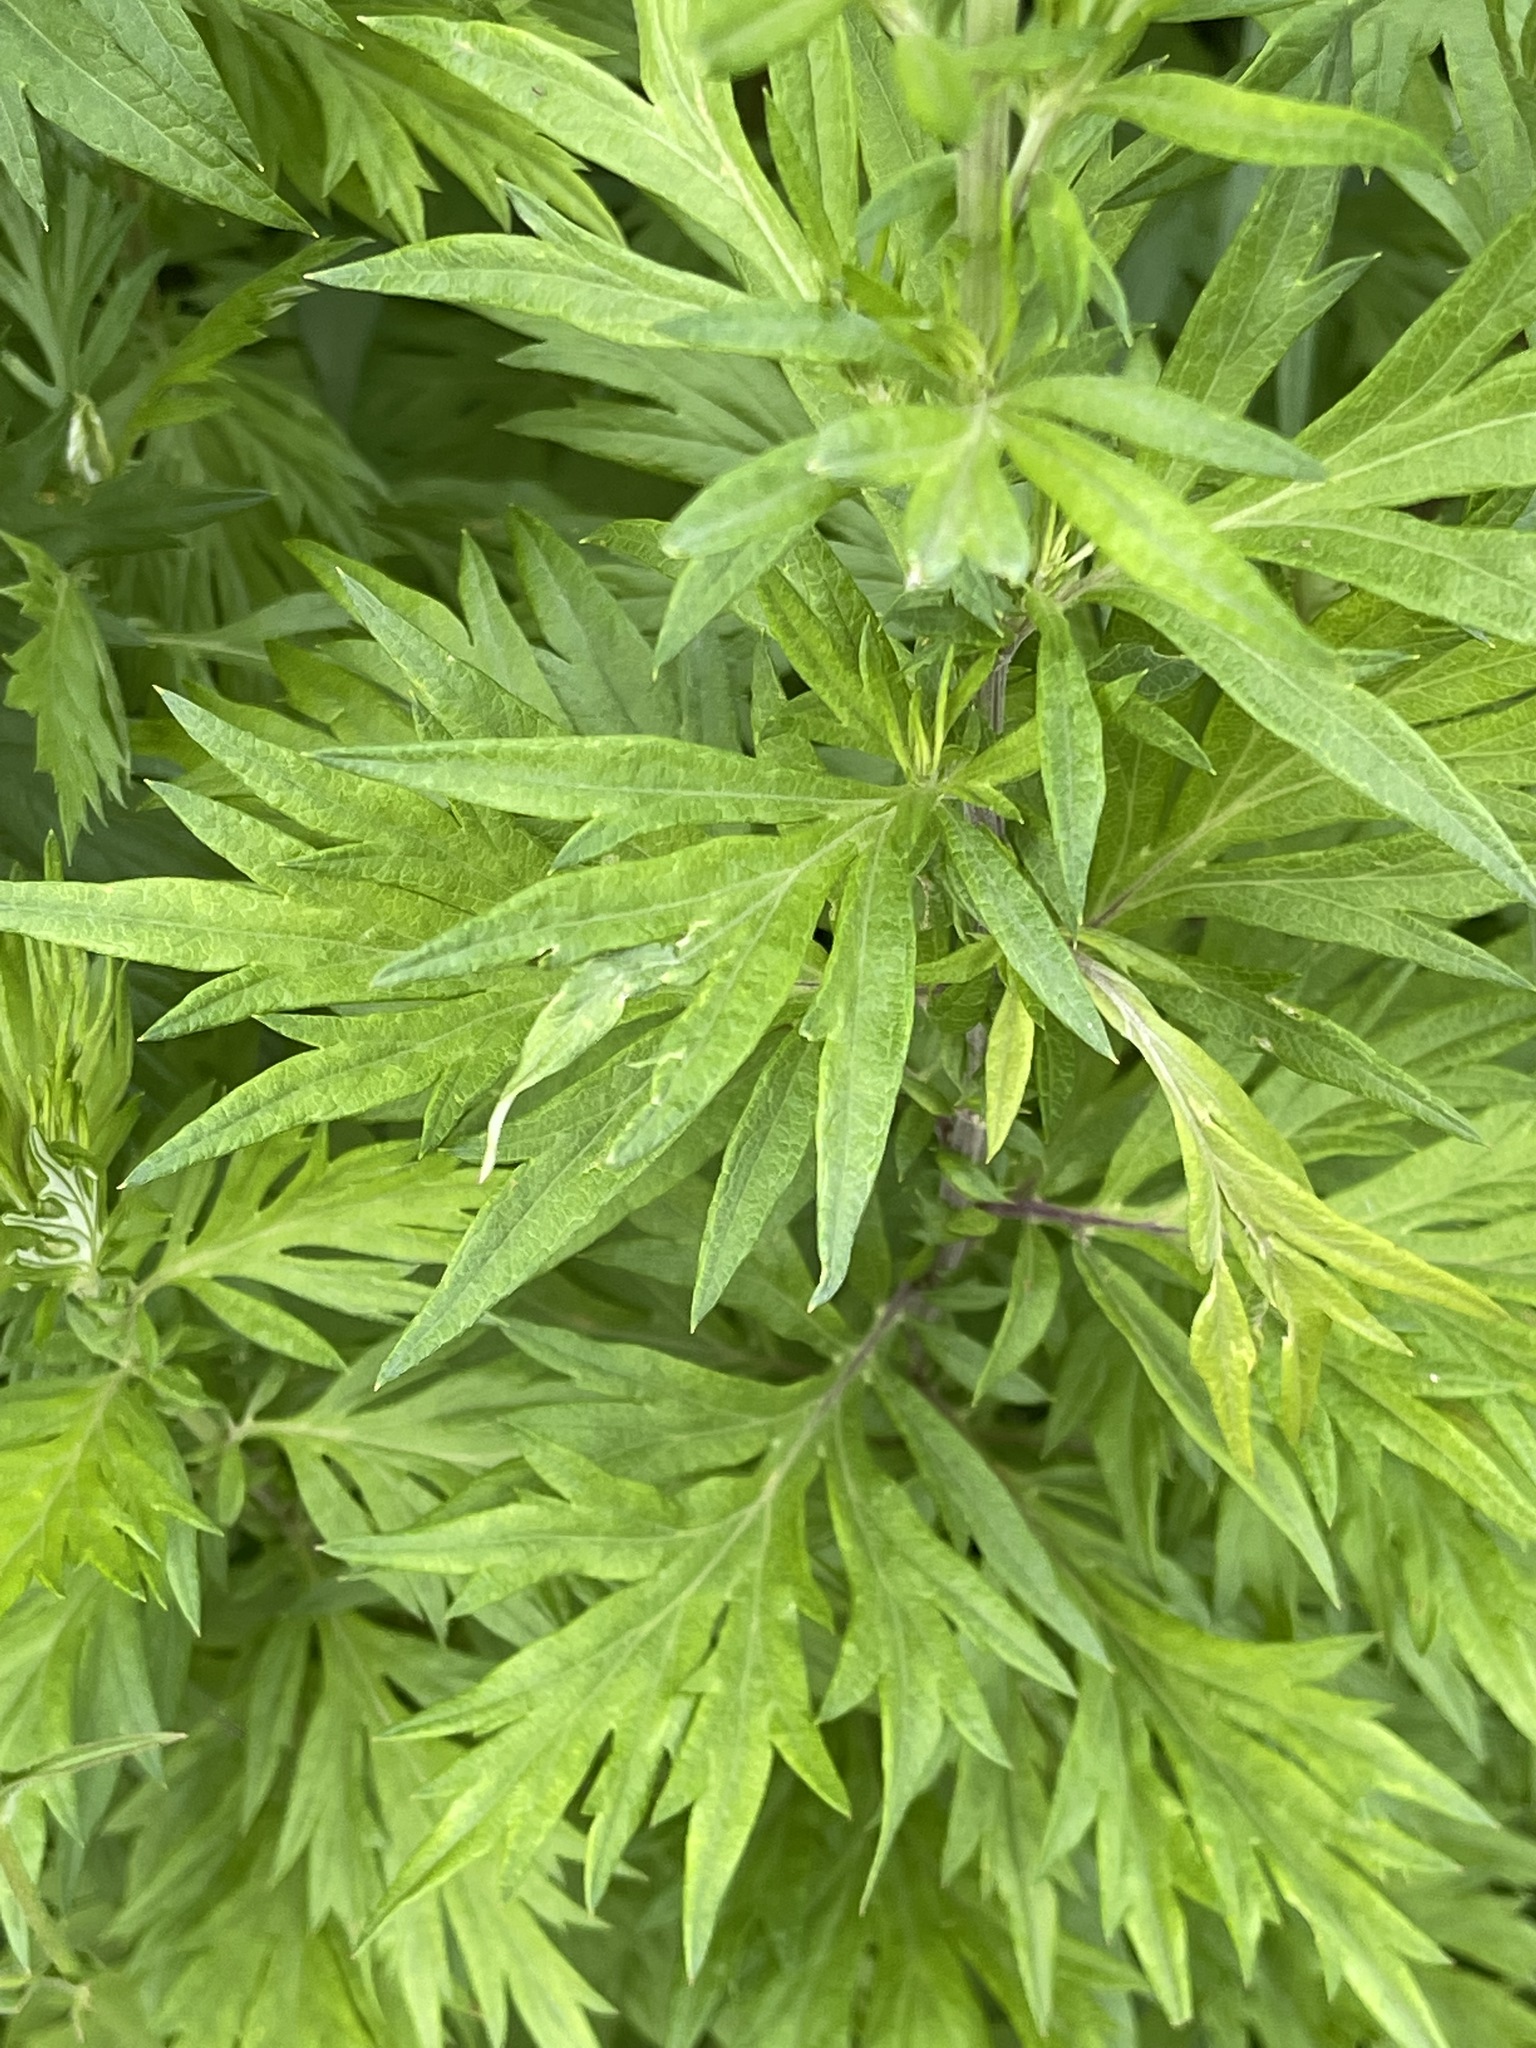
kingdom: Plantae
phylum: Tracheophyta
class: Magnoliopsida
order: Asterales
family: Asteraceae
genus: Artemisia
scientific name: Artemisia vulgaris
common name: Mugwort
